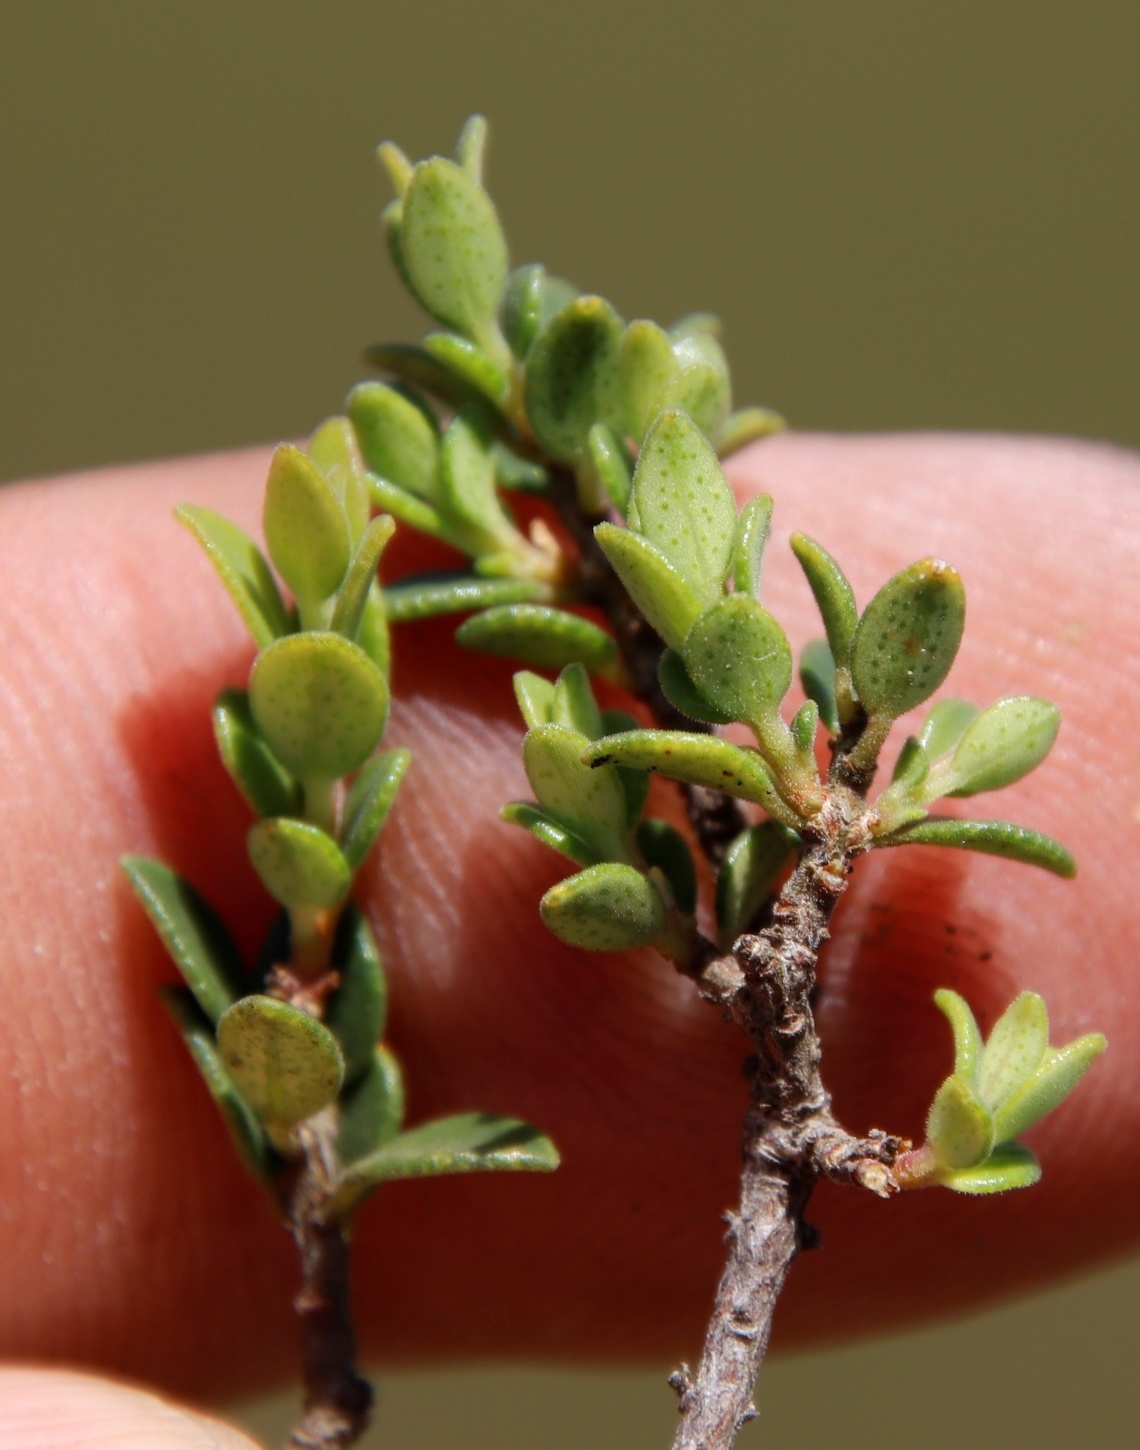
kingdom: Plantae
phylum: Tracheophyta
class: Magnoliopsida
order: Sapindales
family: Rutaceae
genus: Agathosma
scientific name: Agathosma ovata
